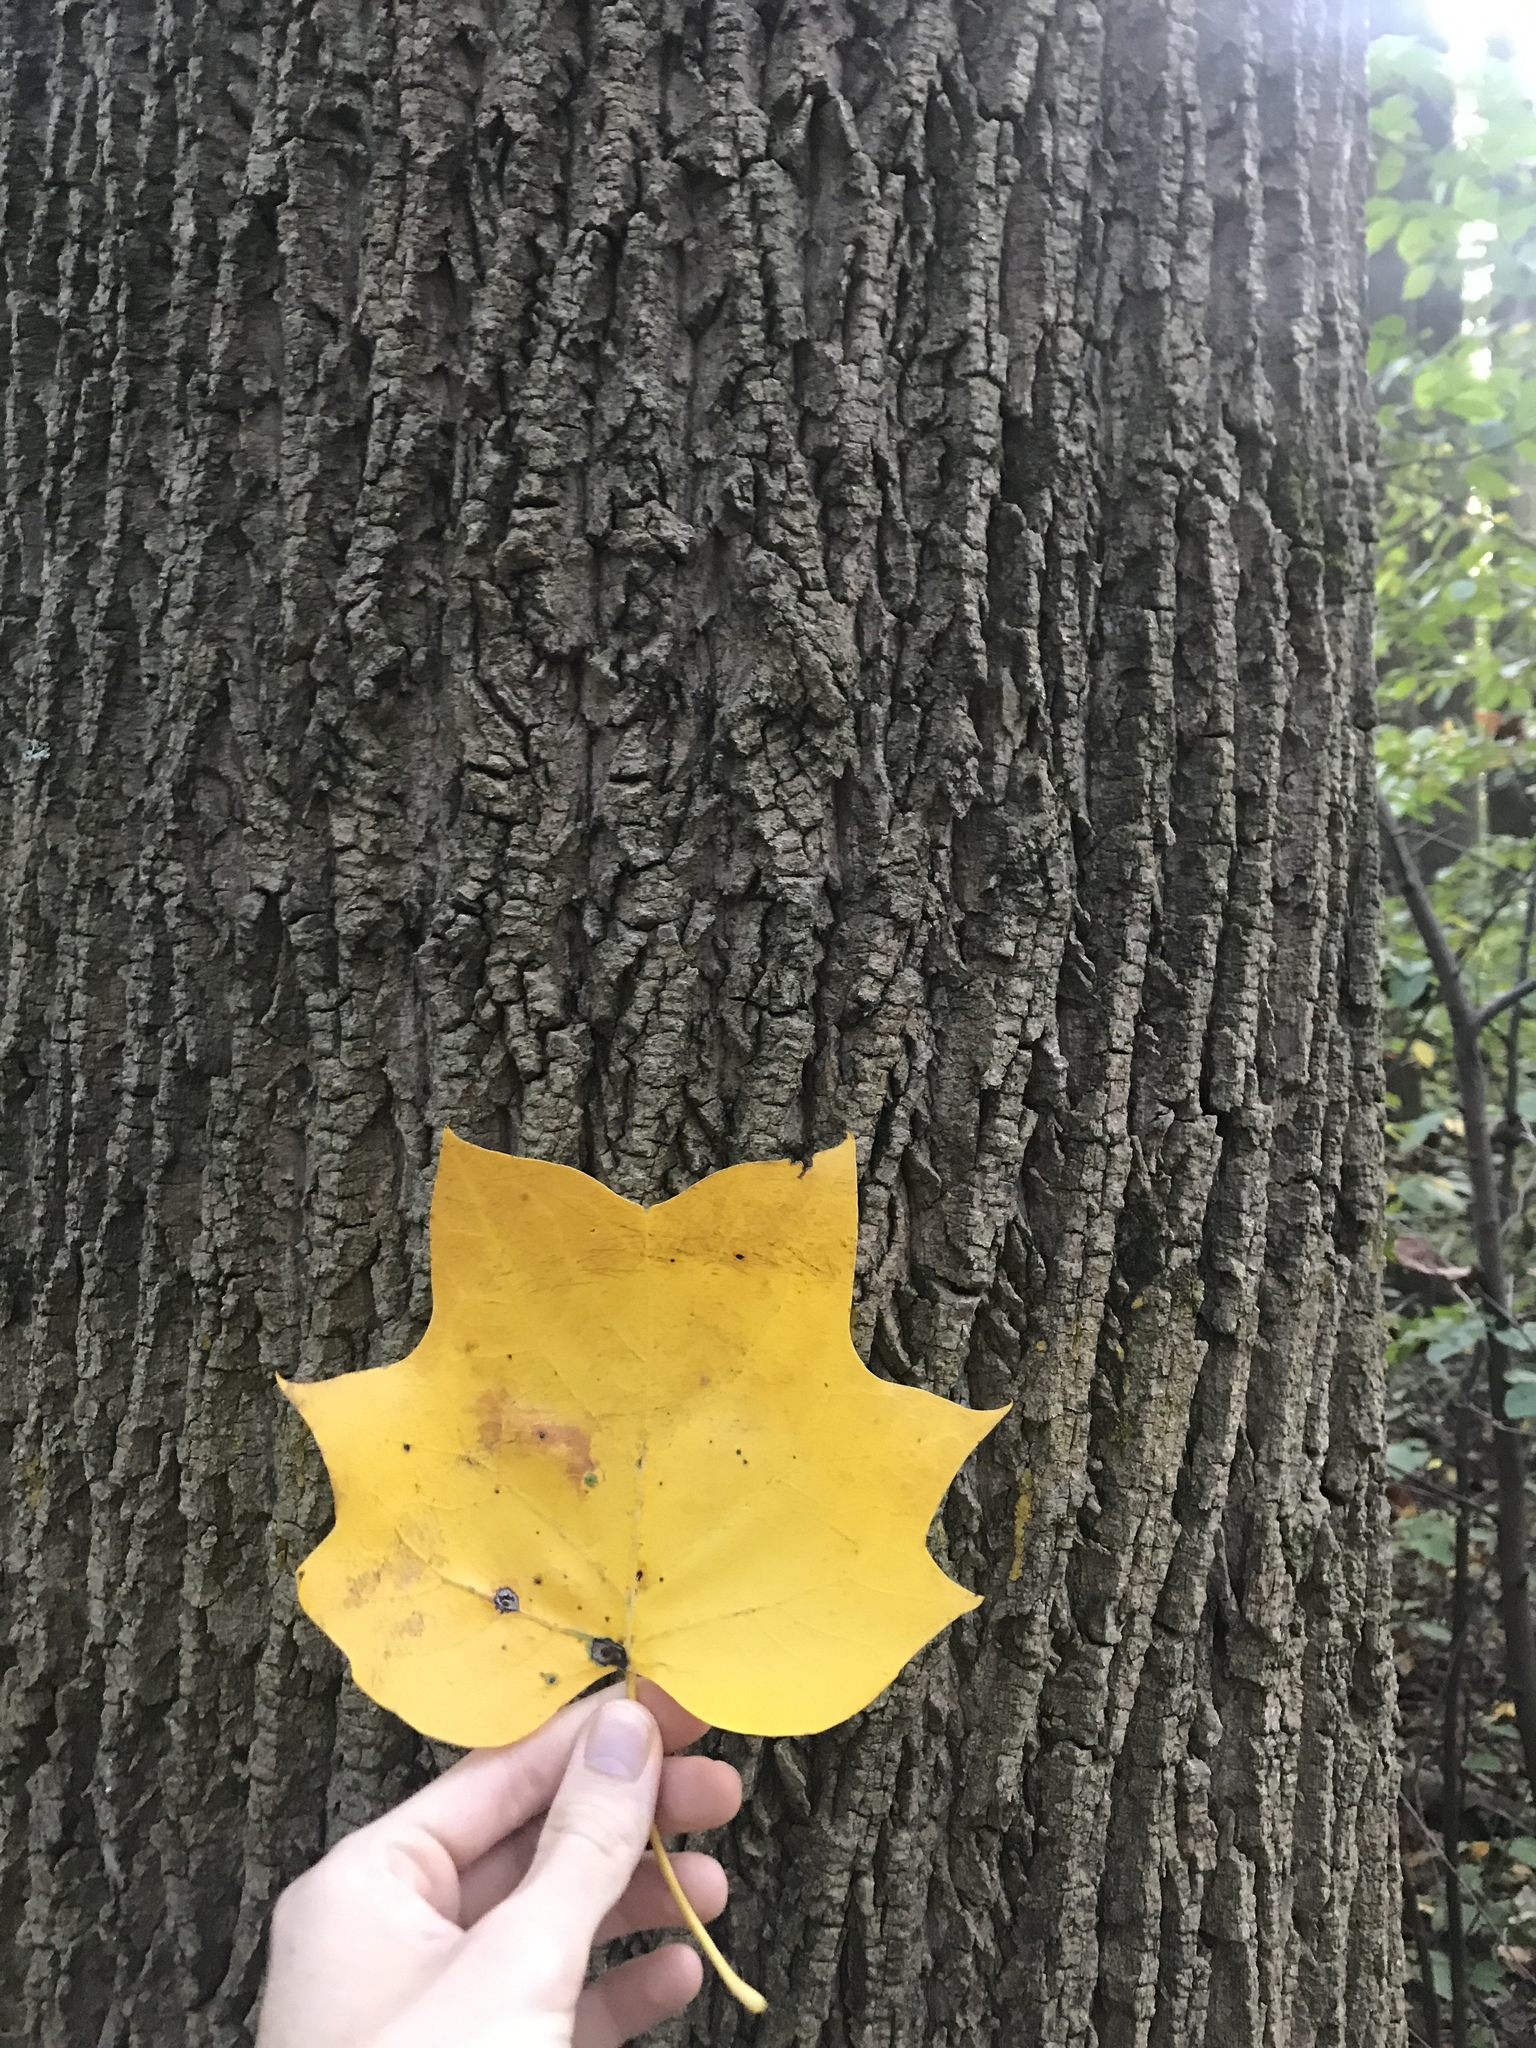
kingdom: Plantae
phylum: Tracheophyta
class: Magnoliopsida
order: Magnoliales
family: Magnoliaceae
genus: Liriodendron
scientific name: Liriodendron tulipifera
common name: Tulip tree
